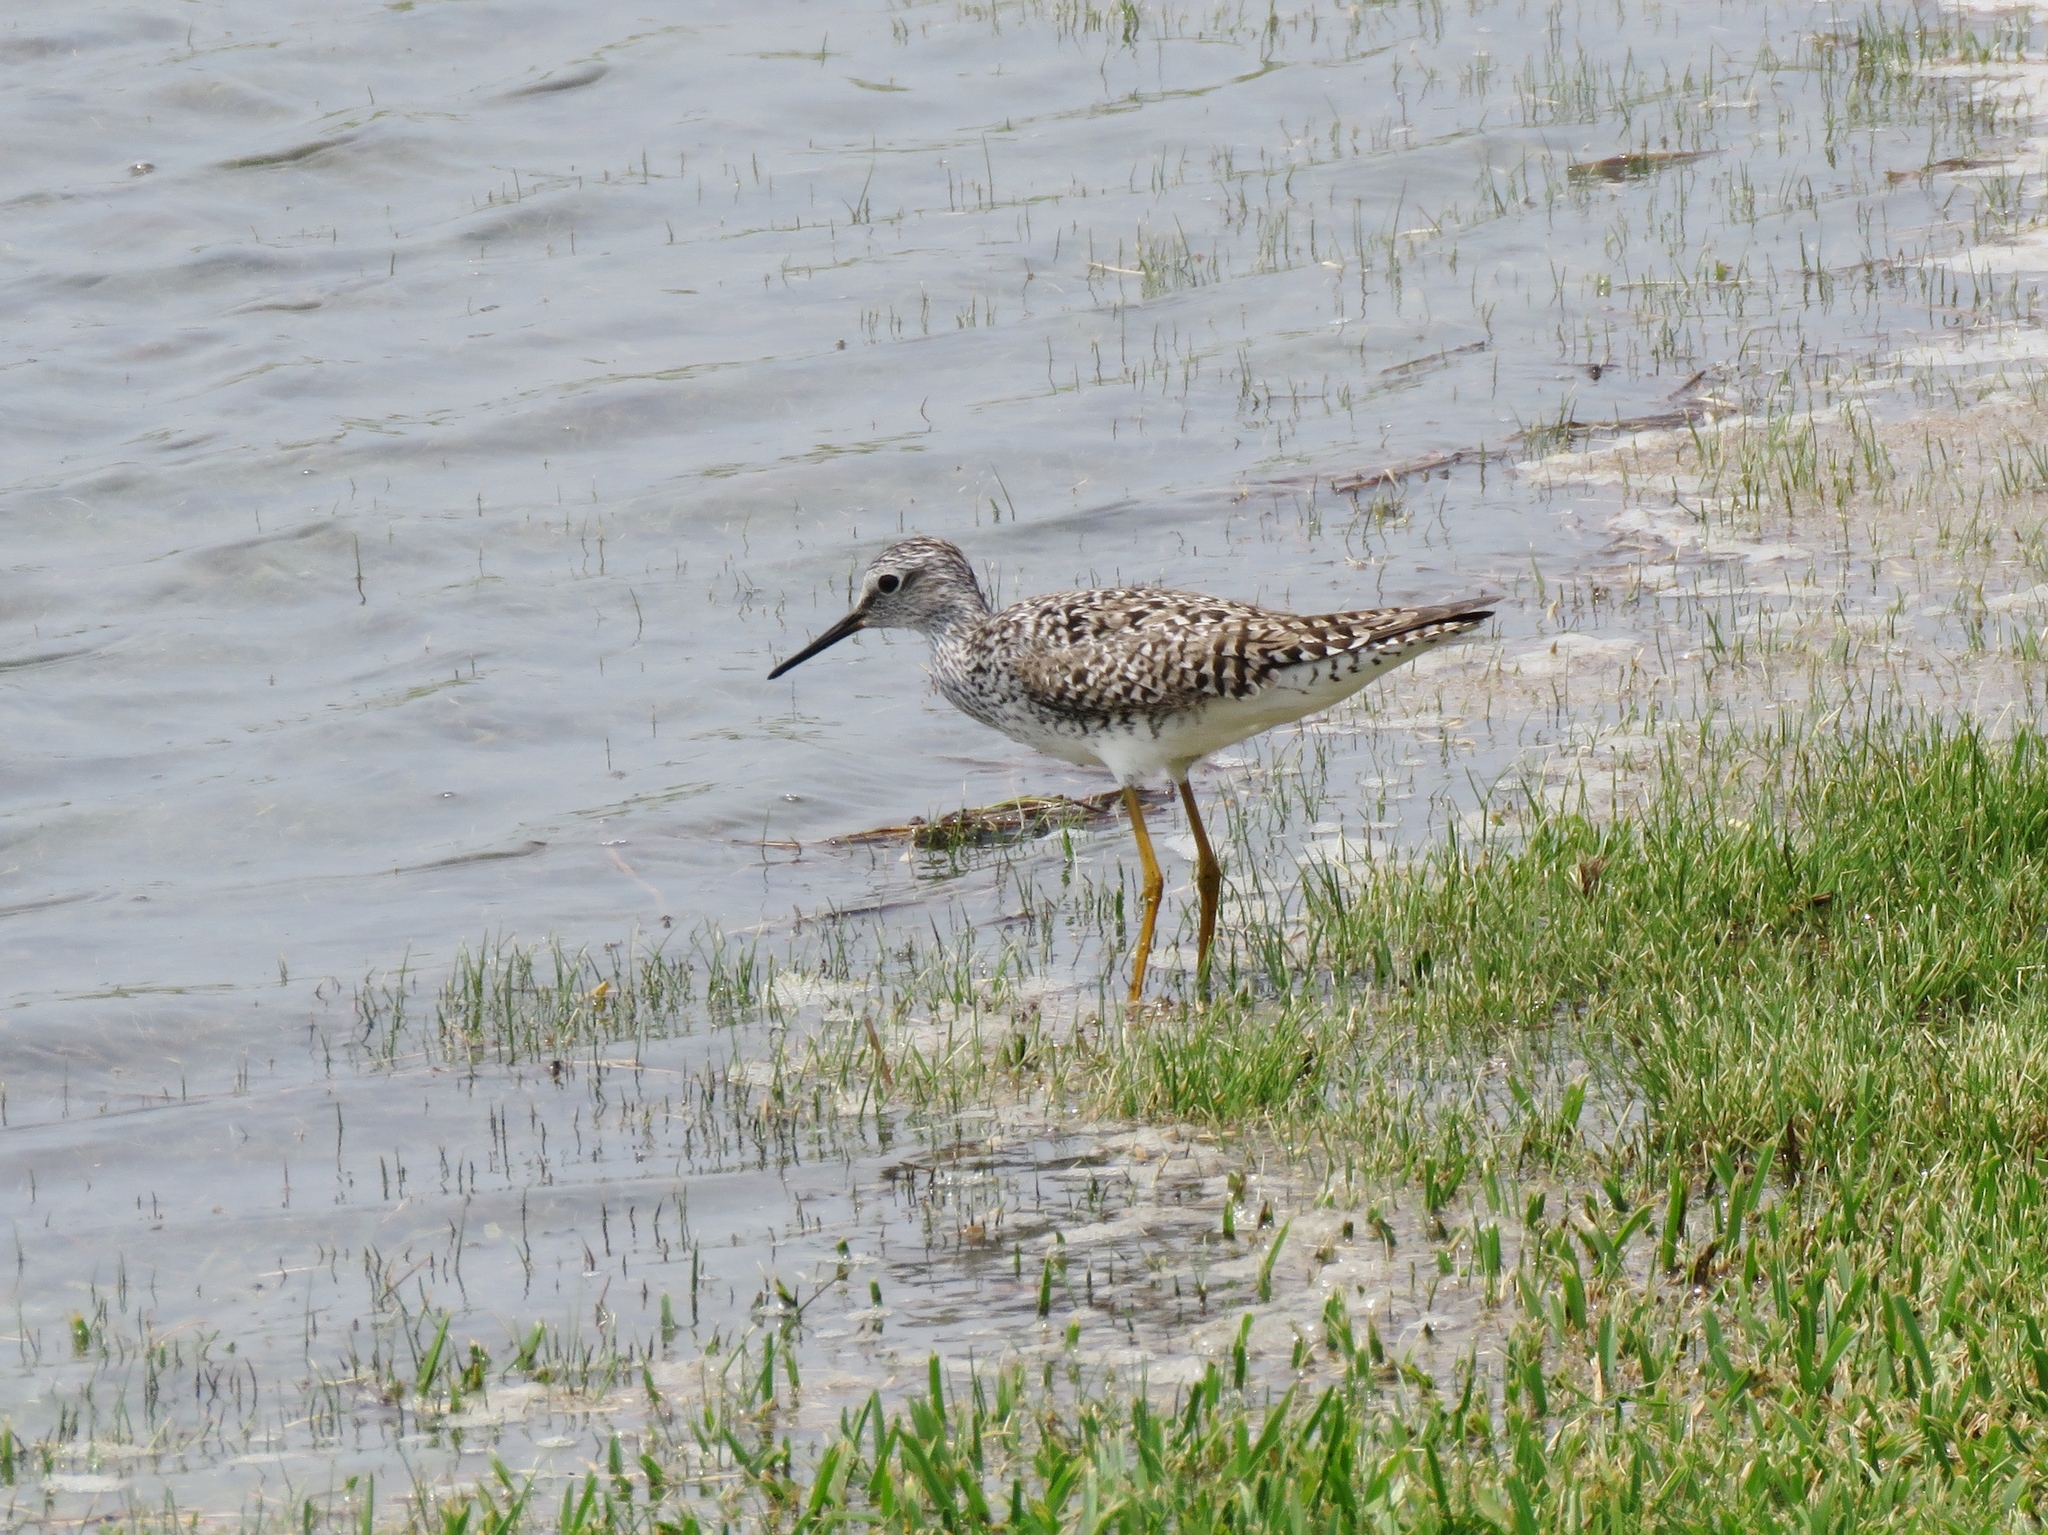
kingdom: Animalia
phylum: Chordata
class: Aves
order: Charadriiformes
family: Scolopacidae
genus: Tringa
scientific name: Tringa flavipes
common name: Lesser yellowlegs
